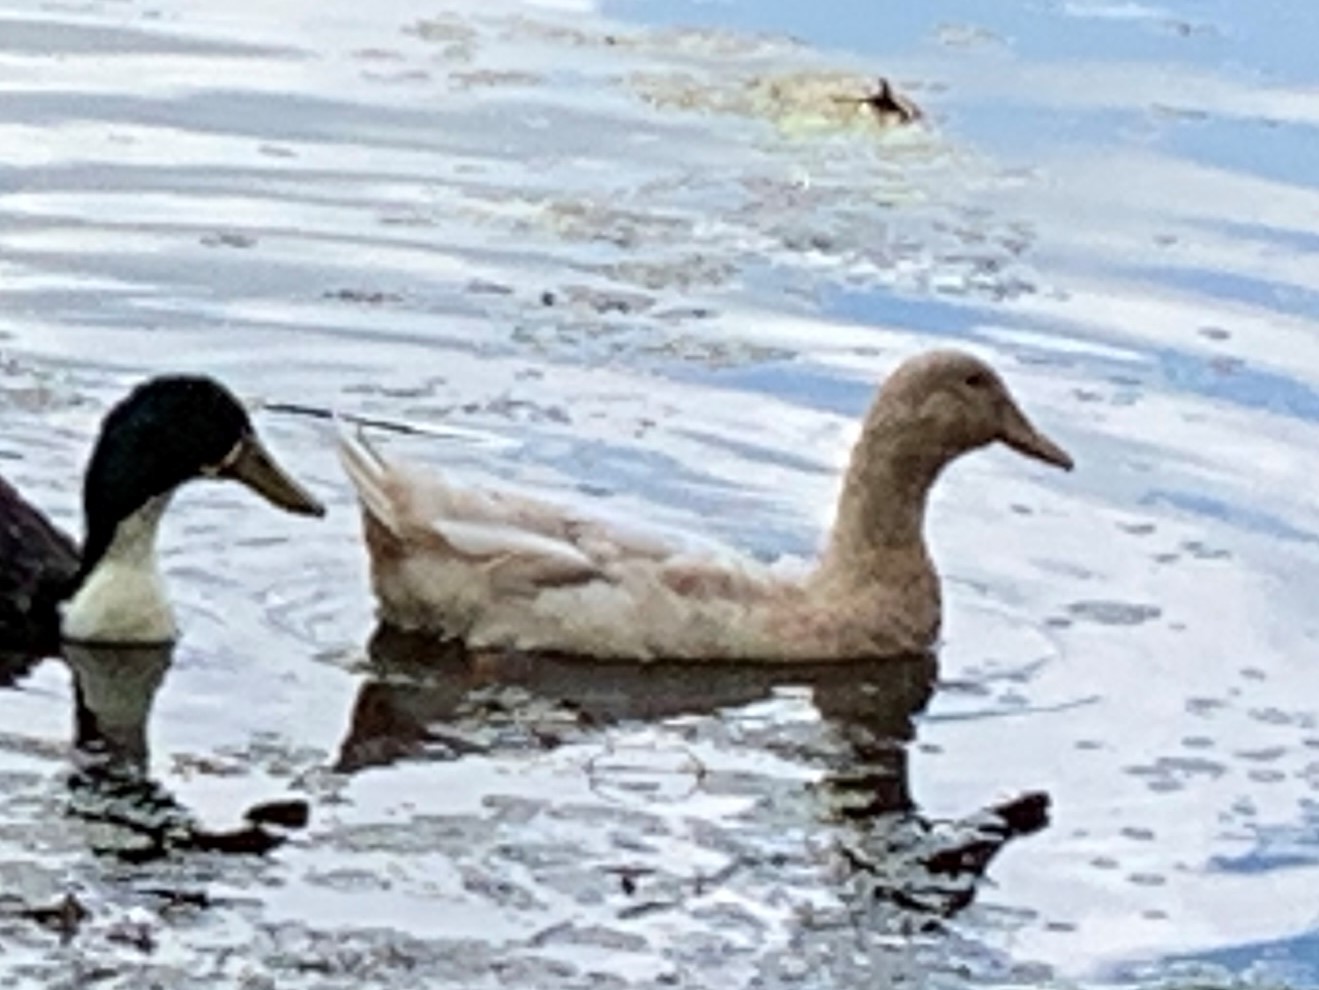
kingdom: Animalia
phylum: Chordata
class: Aves
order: Anseriformes
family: Anatidae
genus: Anas
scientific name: Anas platyrhynchos
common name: Mallard
